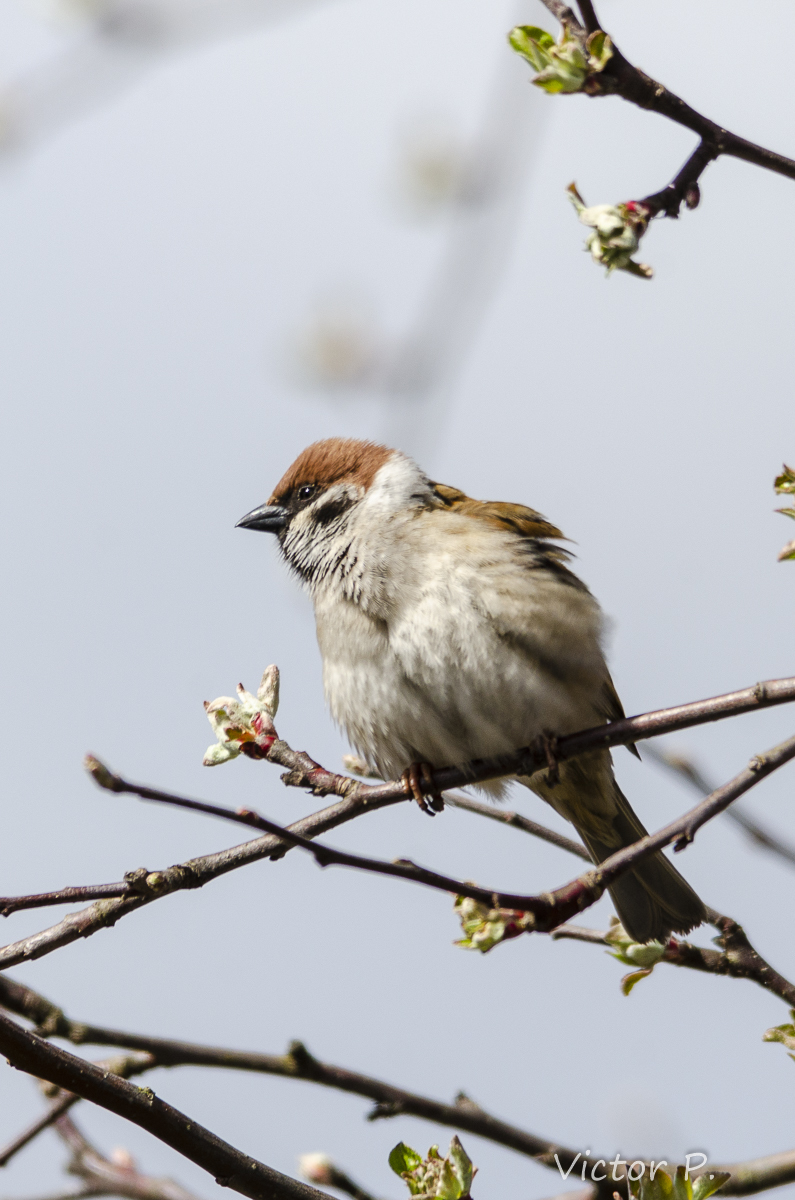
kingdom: Animalia
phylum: Chordata
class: Aves
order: Passeriformes
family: Passeridae
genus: Passer
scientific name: Passer montanus
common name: Eurasian tree sparrow
